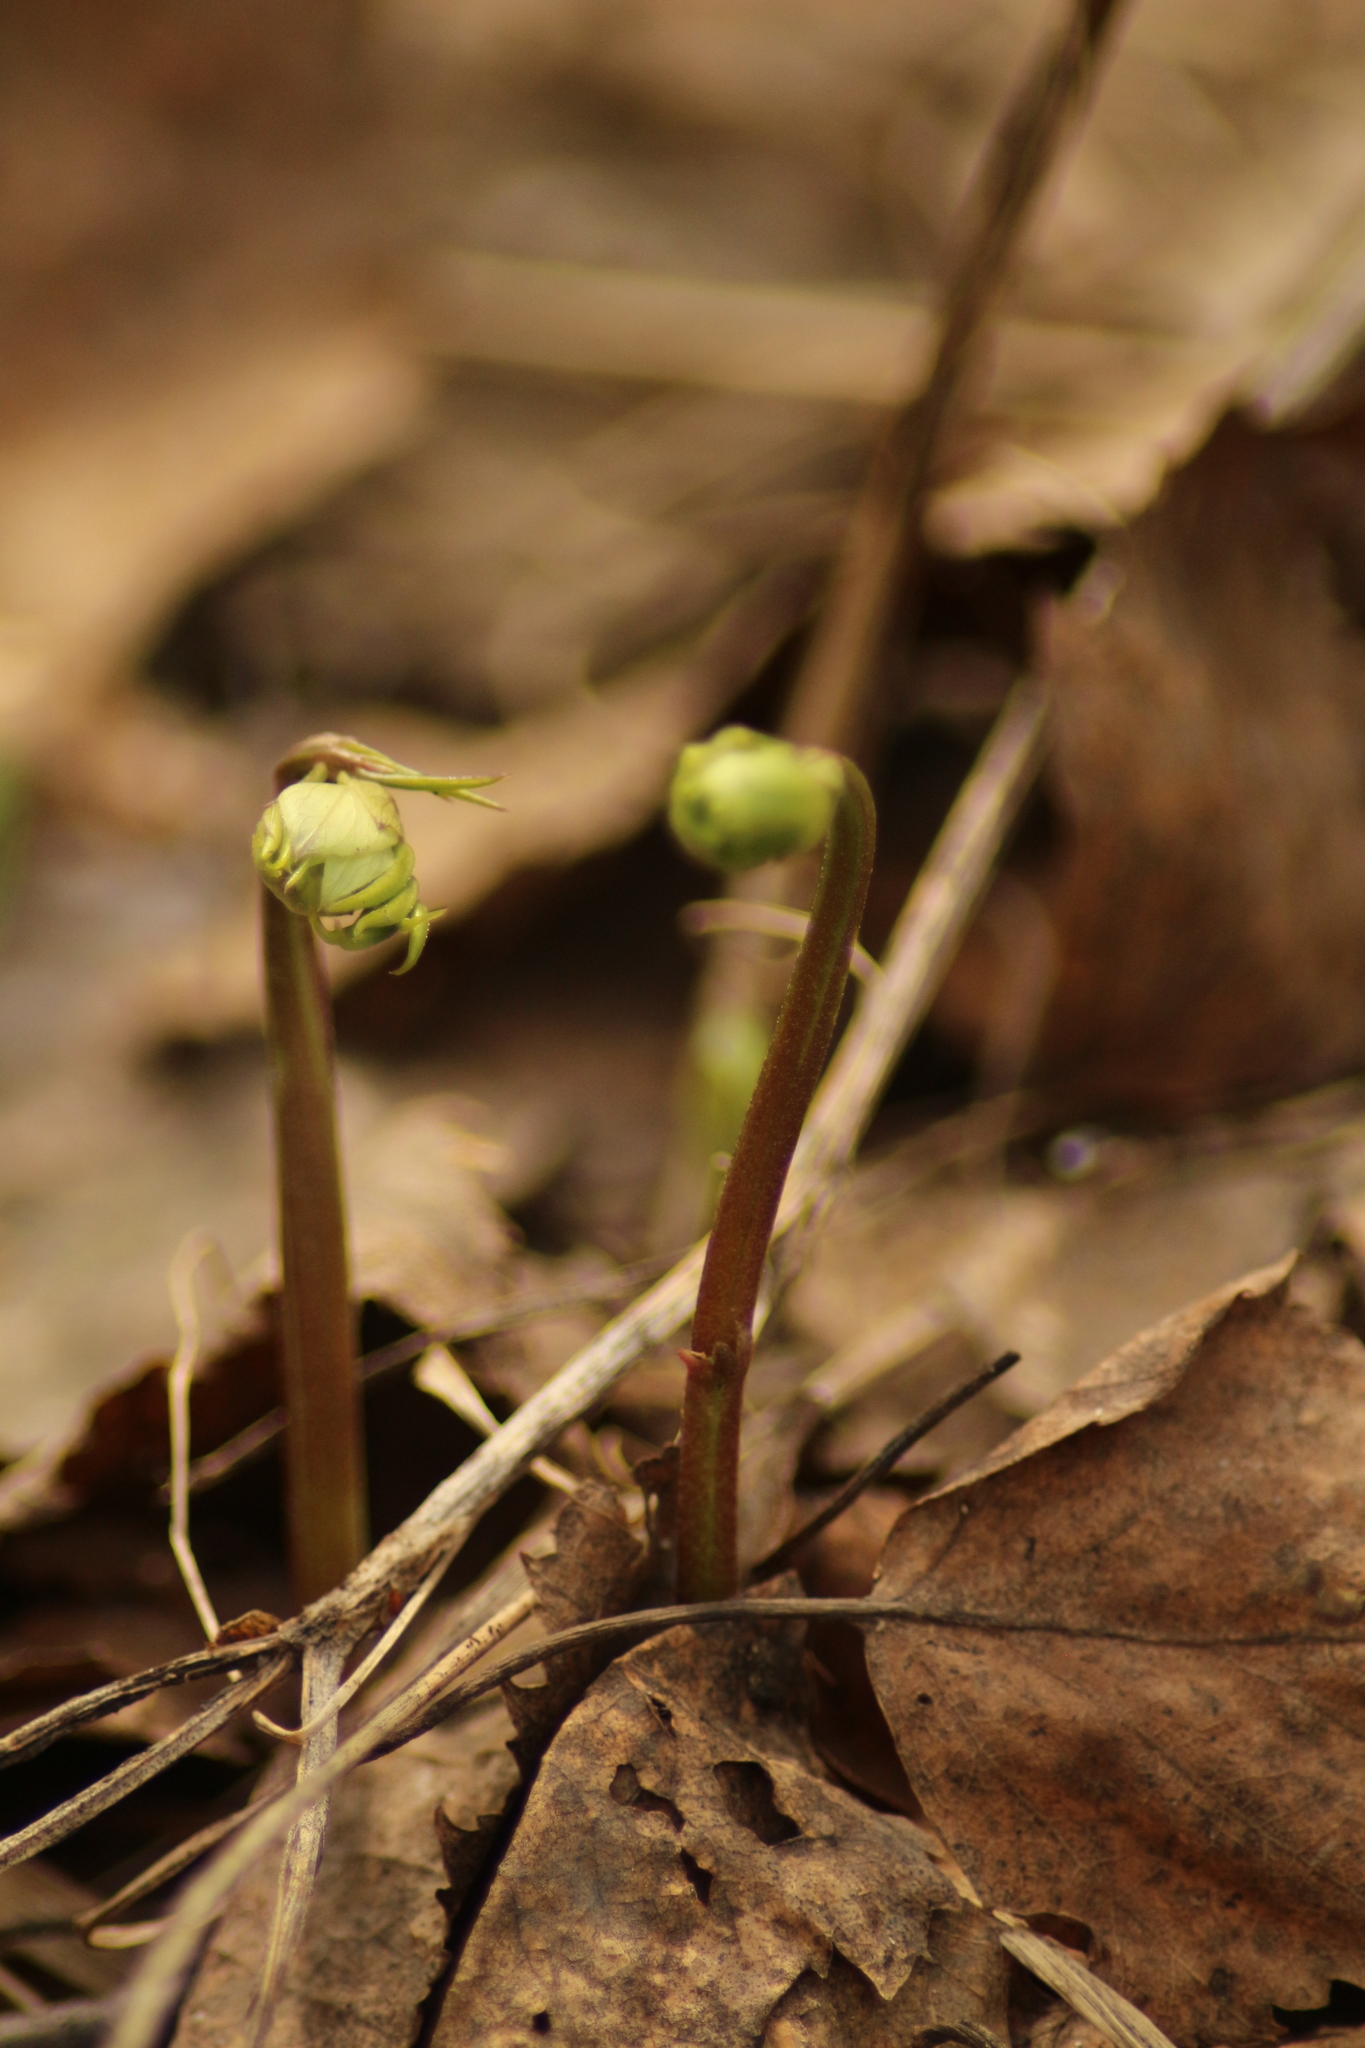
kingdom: Plantae
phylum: Tracheophyta
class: Magnoliopsida
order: Fabales
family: Fabaceae
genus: Lathyrus
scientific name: Lathyrus vernus
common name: Spring pea
